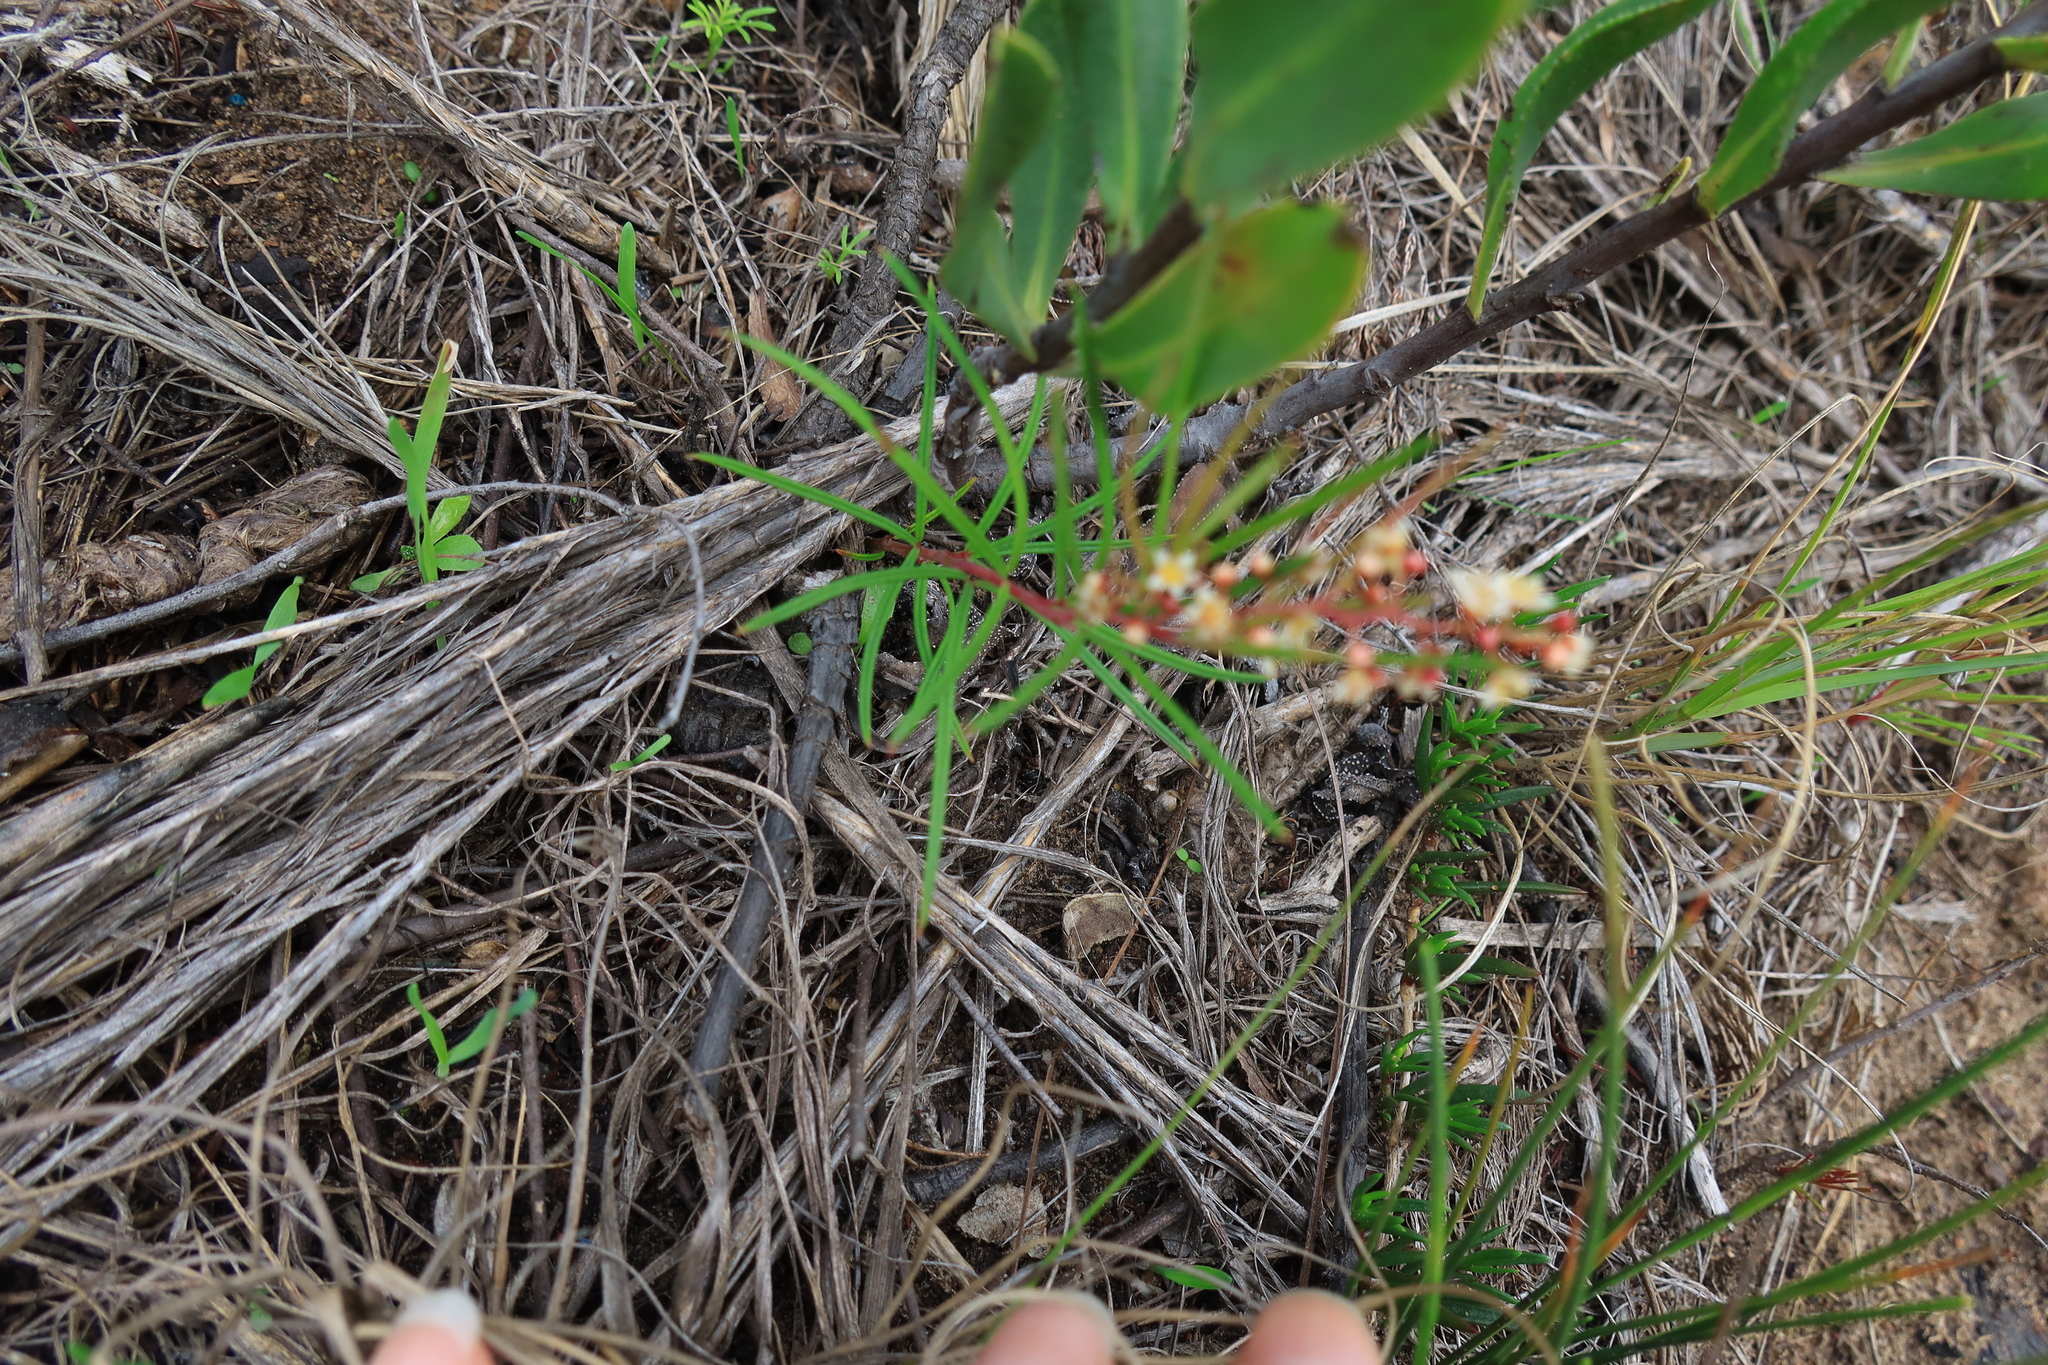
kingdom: Plantae
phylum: Tracheophyta
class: Magnoliopsida
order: Sapindales
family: Anacardiaceae
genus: Searsia
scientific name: Searsia rosmarinifolia
